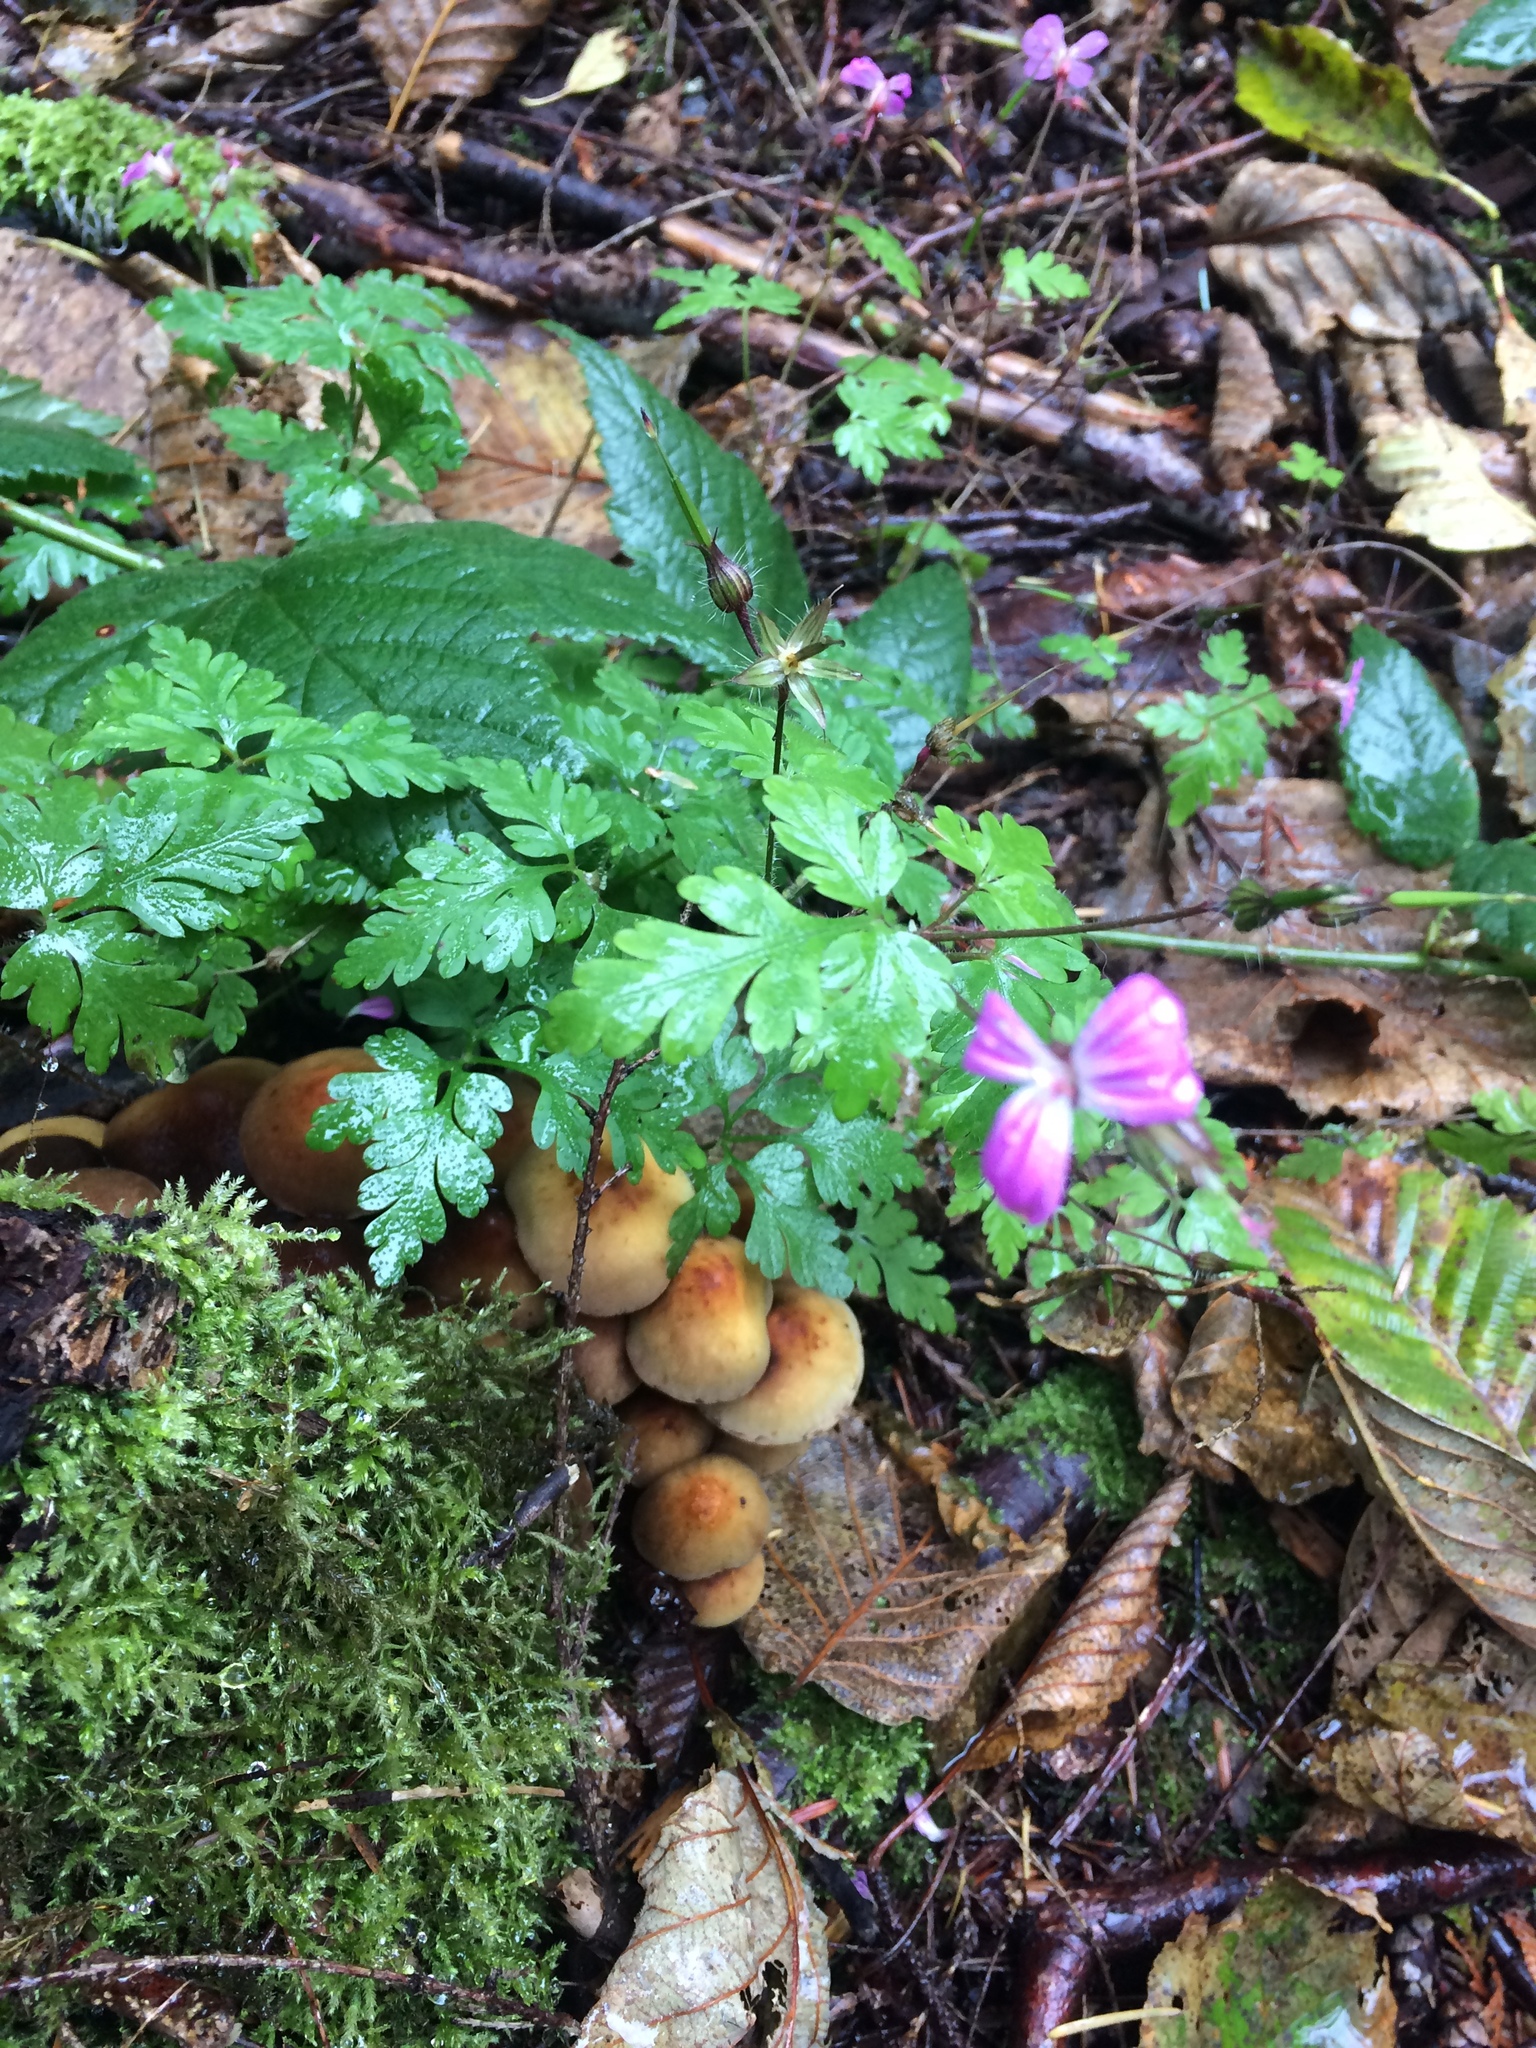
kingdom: Plantae
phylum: Tracheophyta
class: Magnoliopsida
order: Geraniales
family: Geraniaceae
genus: Geranium
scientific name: Geranium robertianum
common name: Herb-robert
